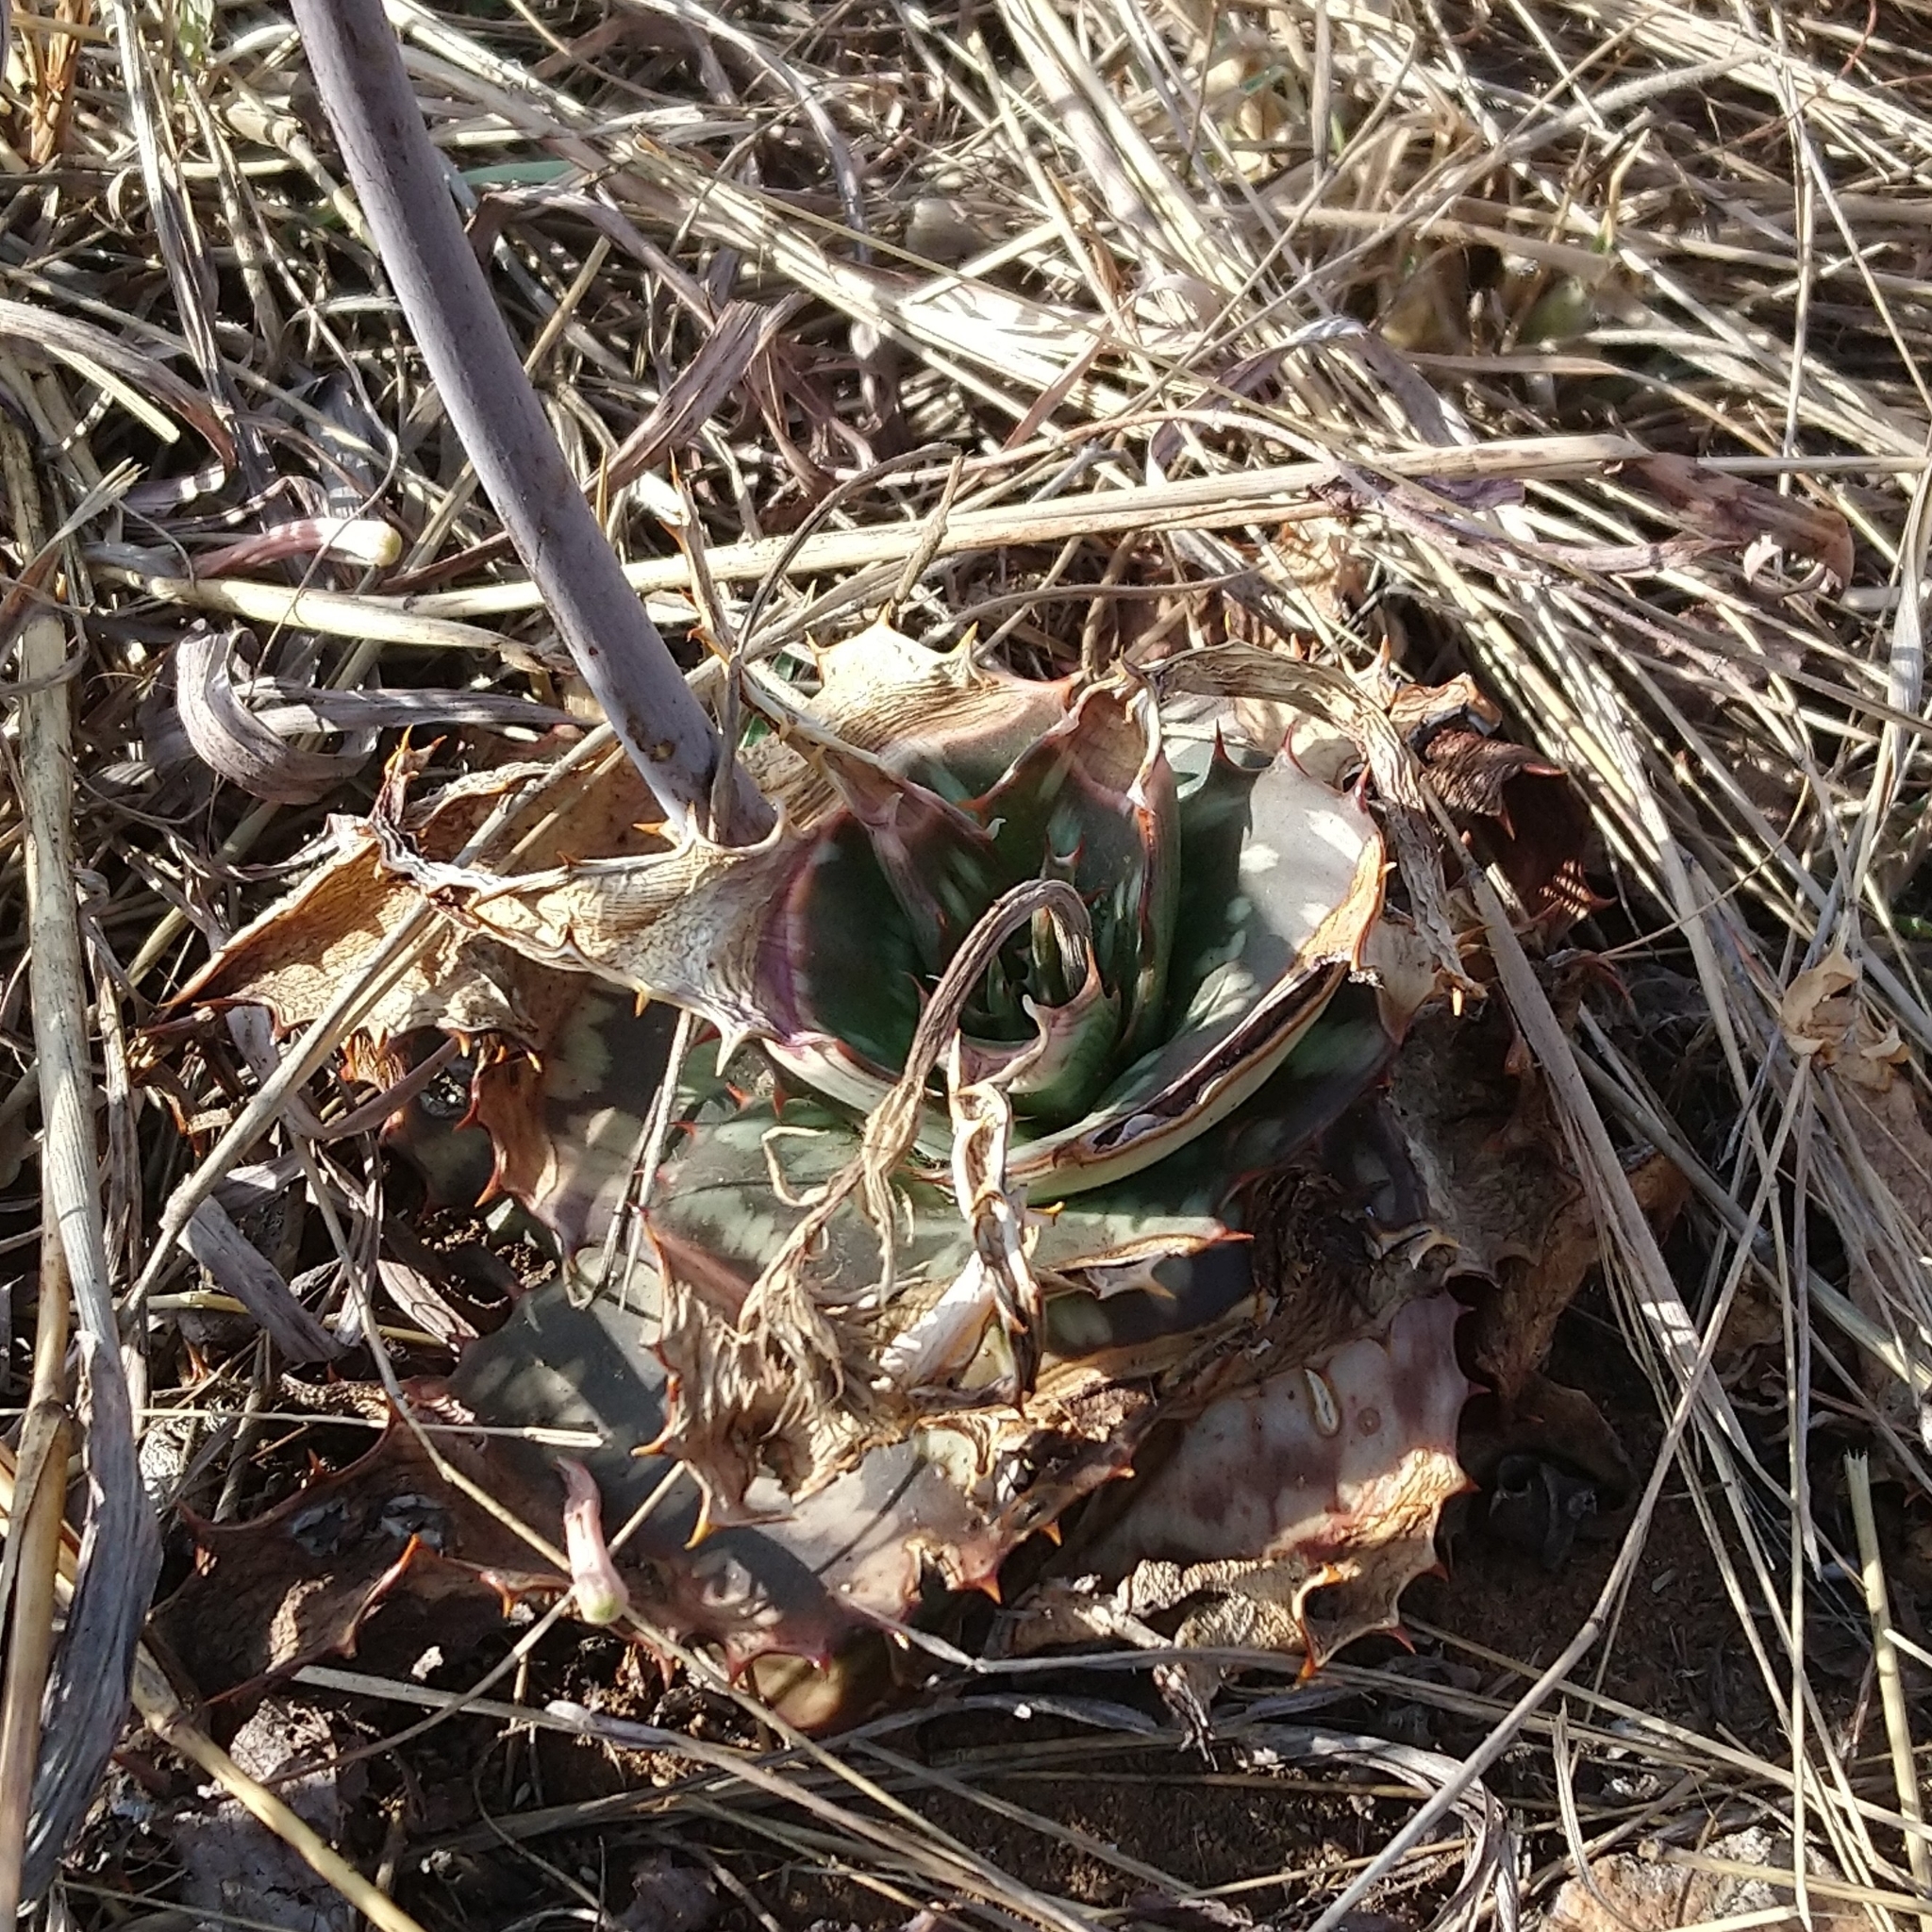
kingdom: Plantae
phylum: Tracheophyta
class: Liliopsida
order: Asparagales
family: Asphodelaceae
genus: Aloe
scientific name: Aloe greatheadii
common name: Greathead's aloe
